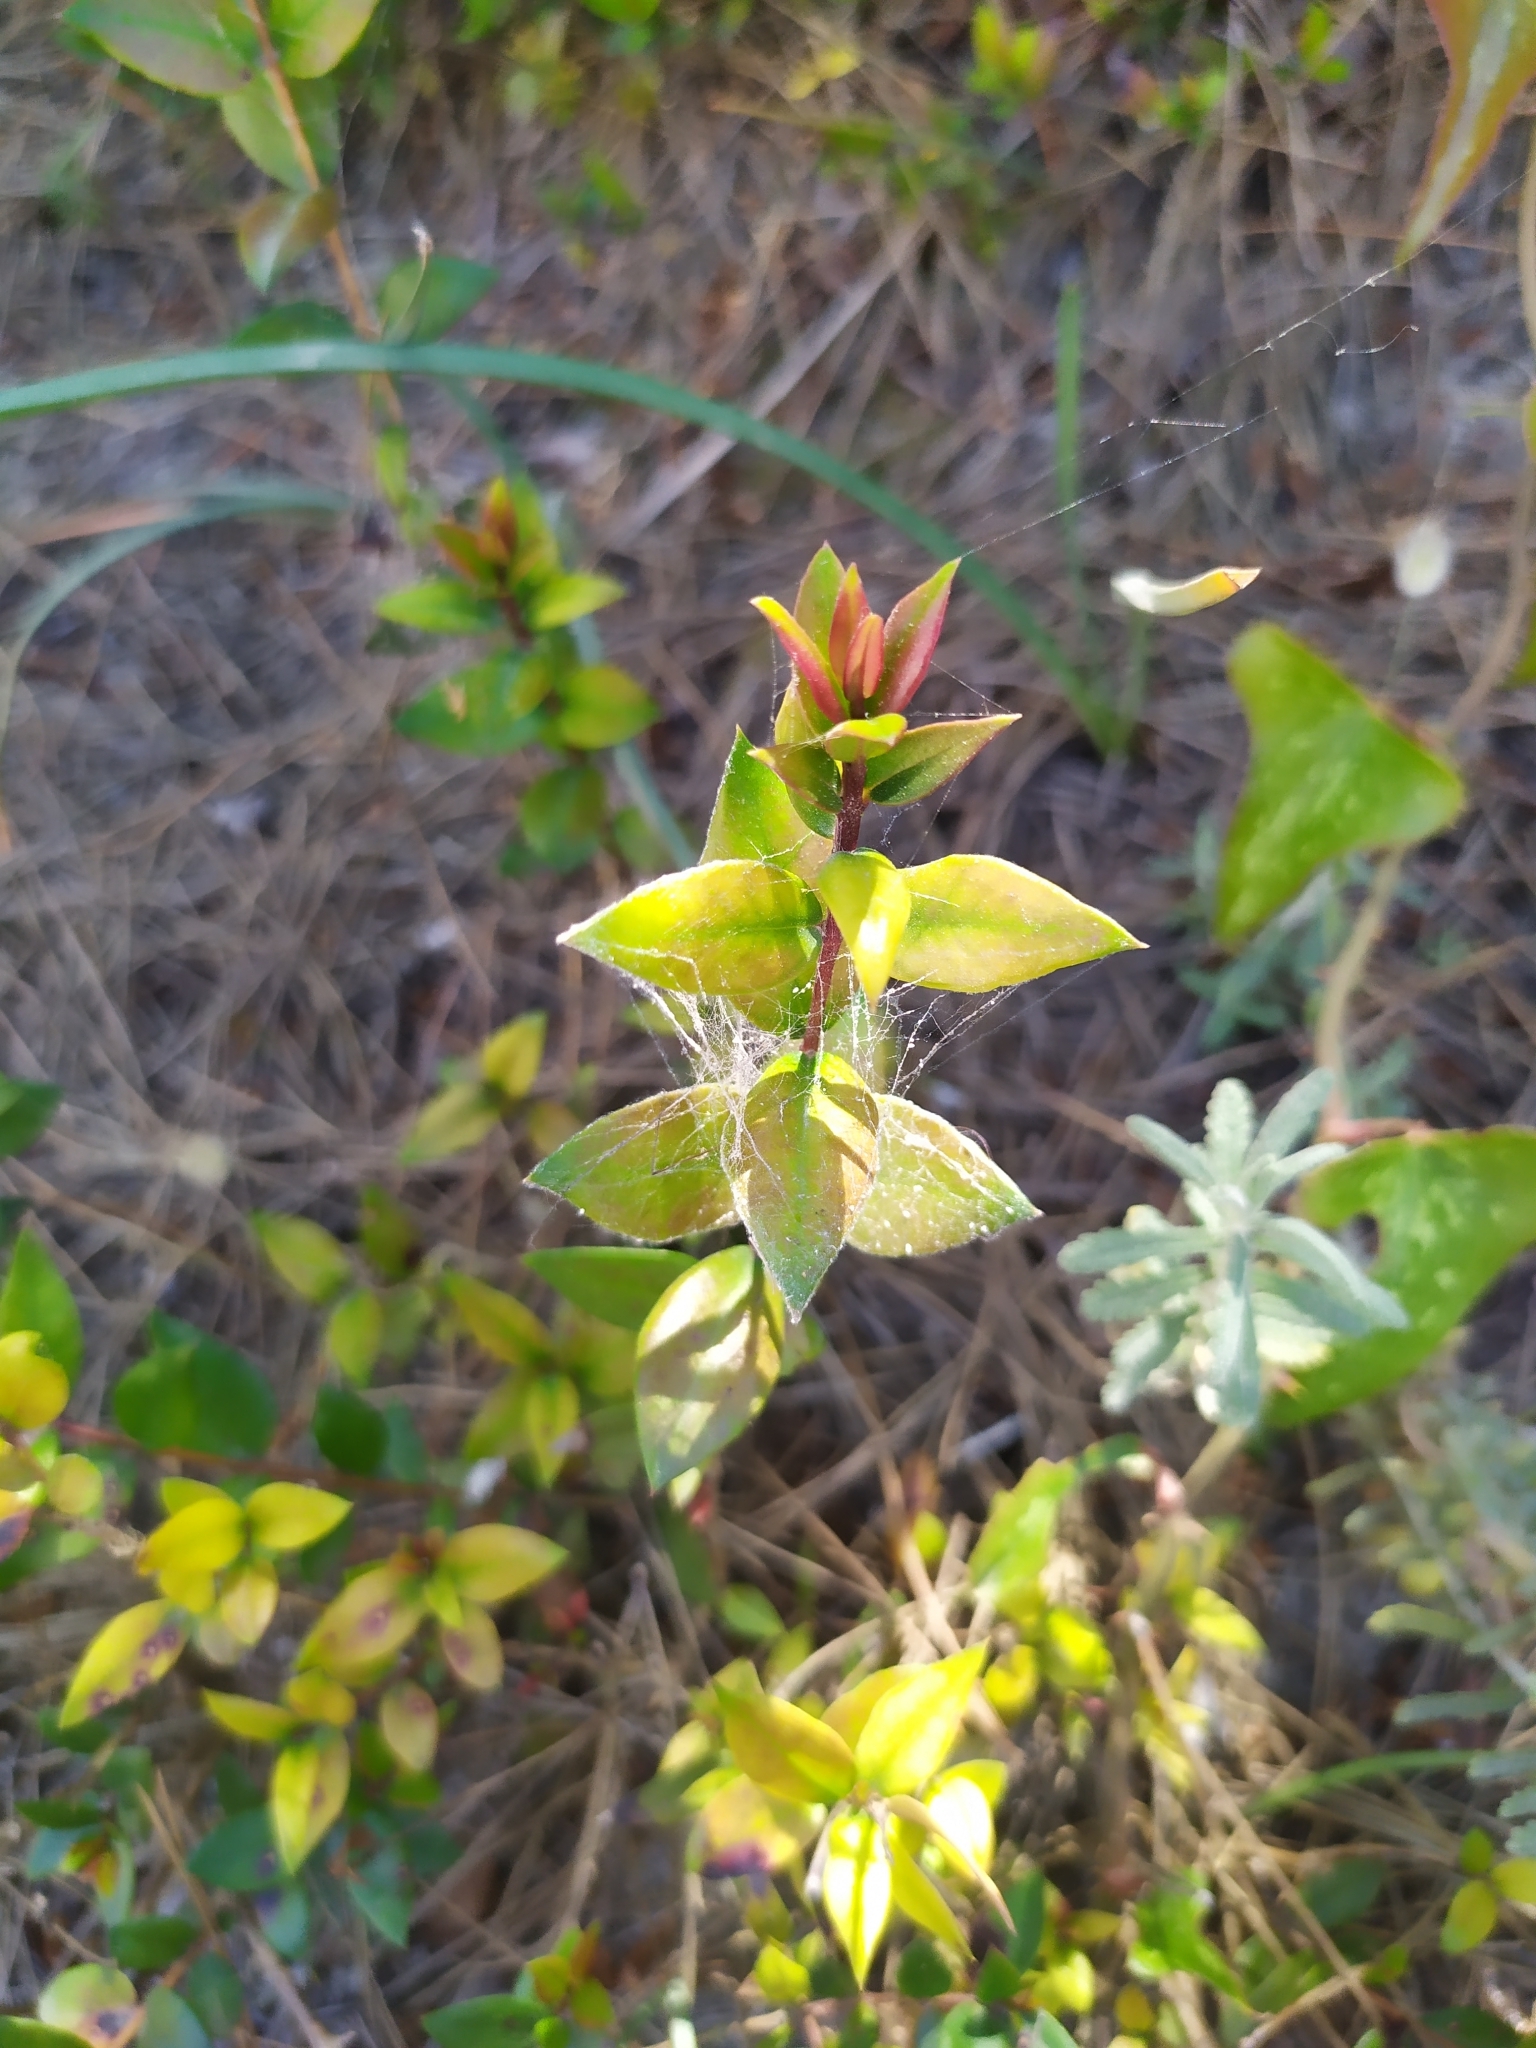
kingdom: Plantae
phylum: Tracheophyta
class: Magnoliopsida
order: Myrtales
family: Myrtaceae
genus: Myrtus
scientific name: Myrtus communis
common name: Myrtle
